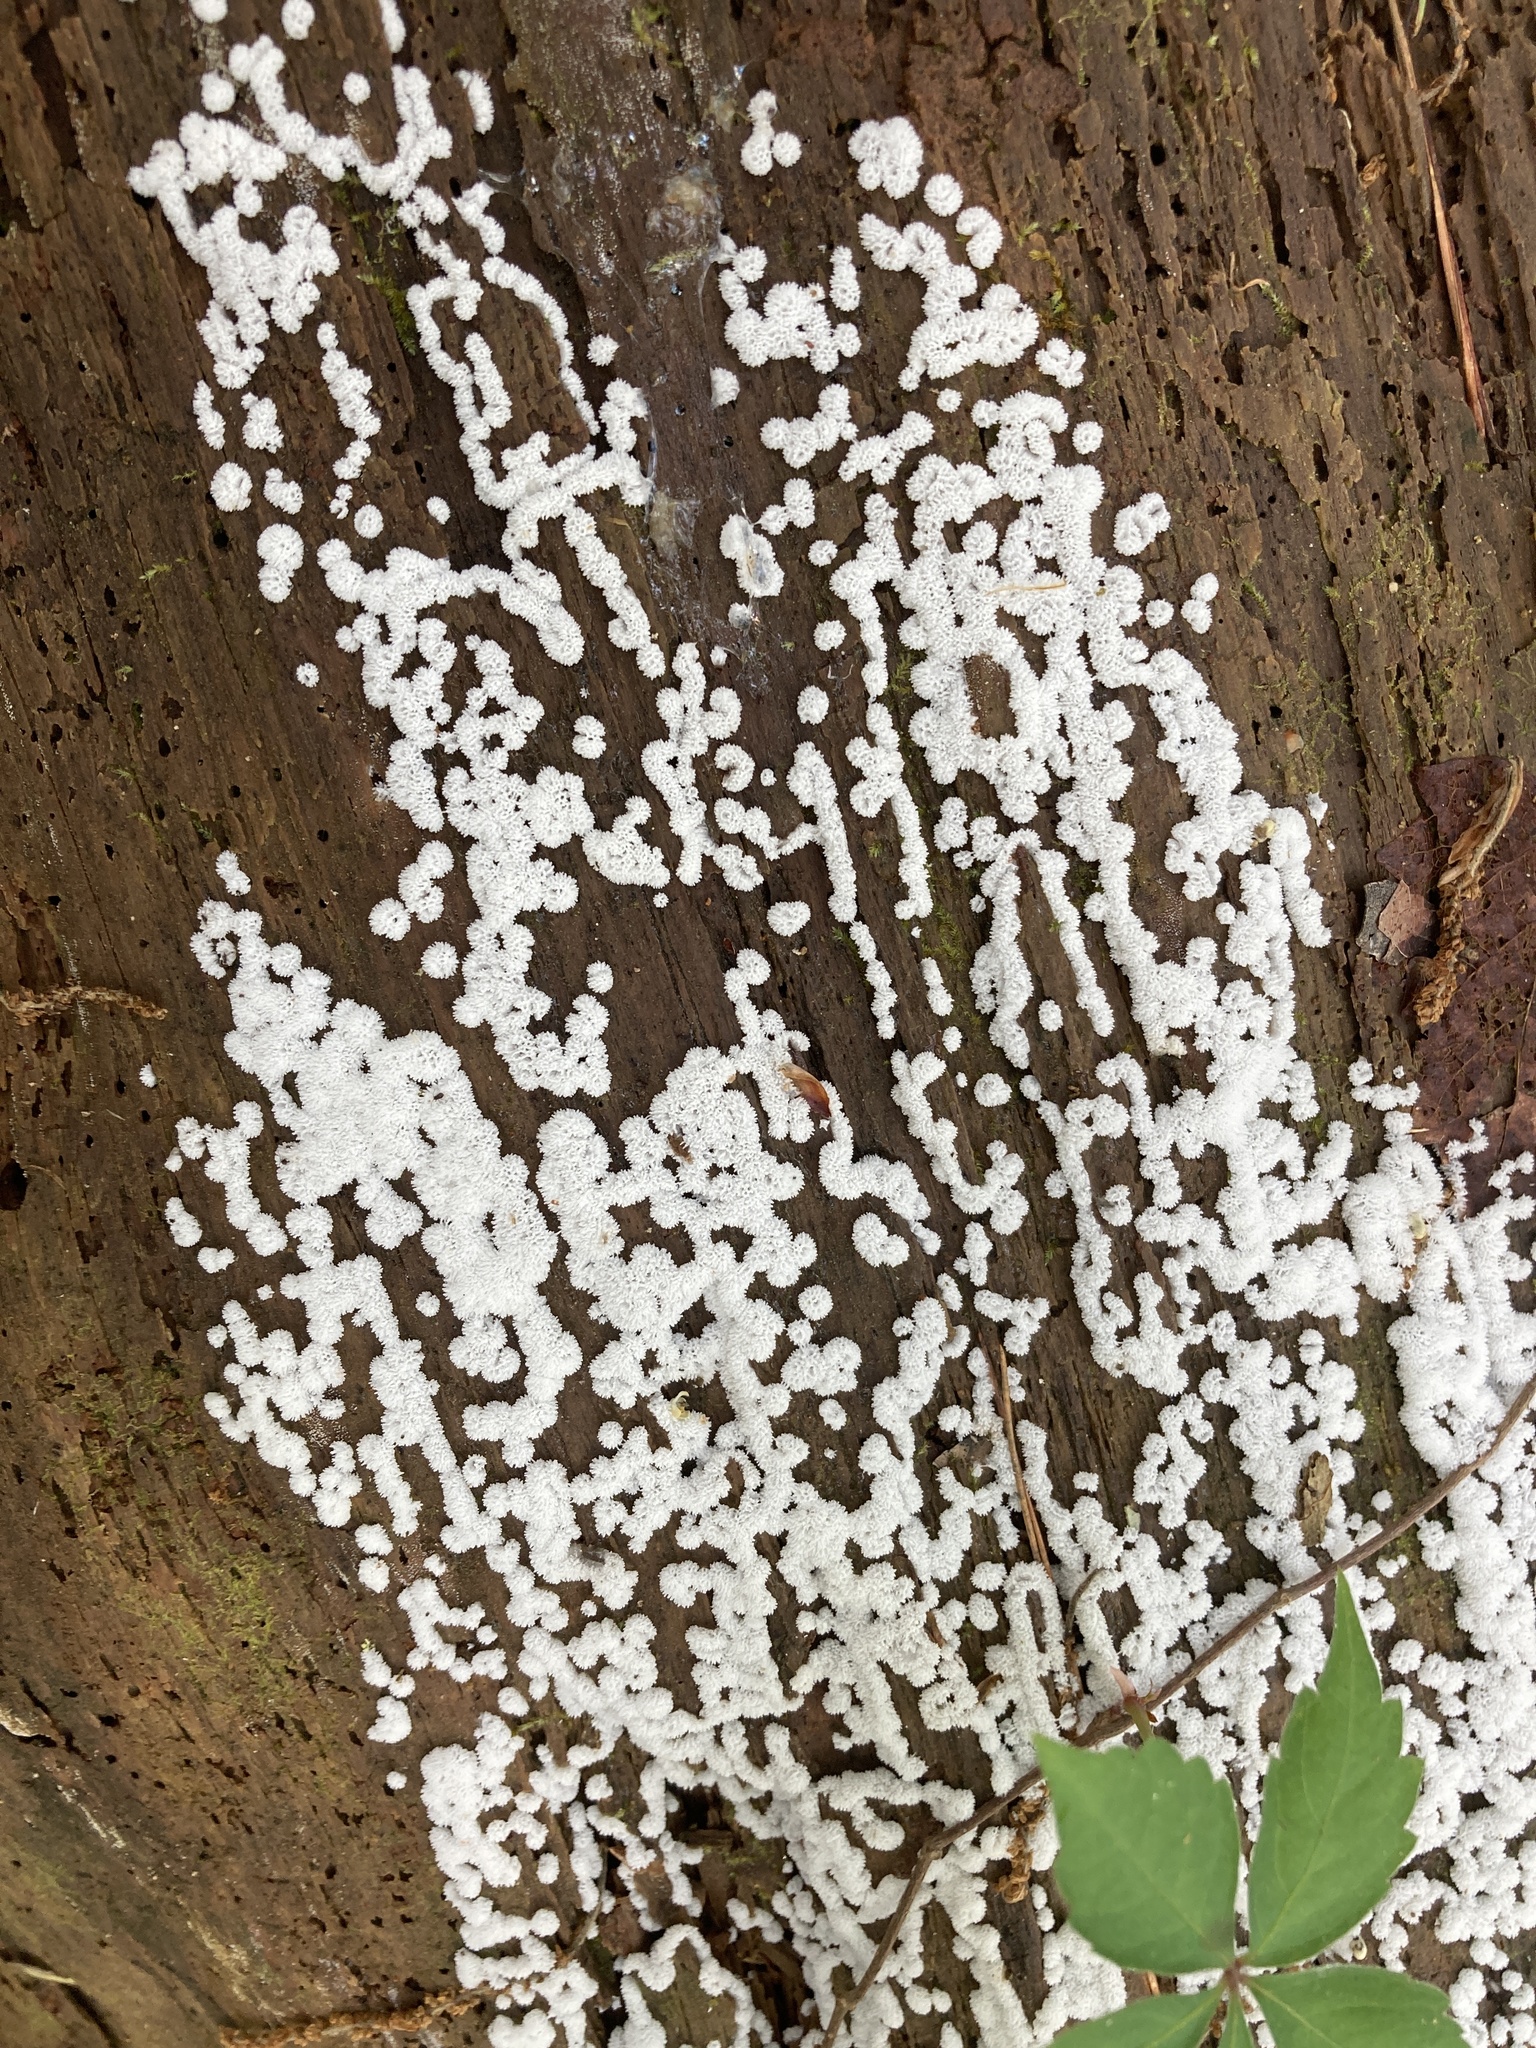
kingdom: Protozoa
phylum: Mycetozoa
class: Protosteliomycetes
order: Ceratiomyxales
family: Ceratiomyxaceae
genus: Ceratiomyxa
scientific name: Ceratiomyxa fruticulosa
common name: Honeycomb coral slime mold
